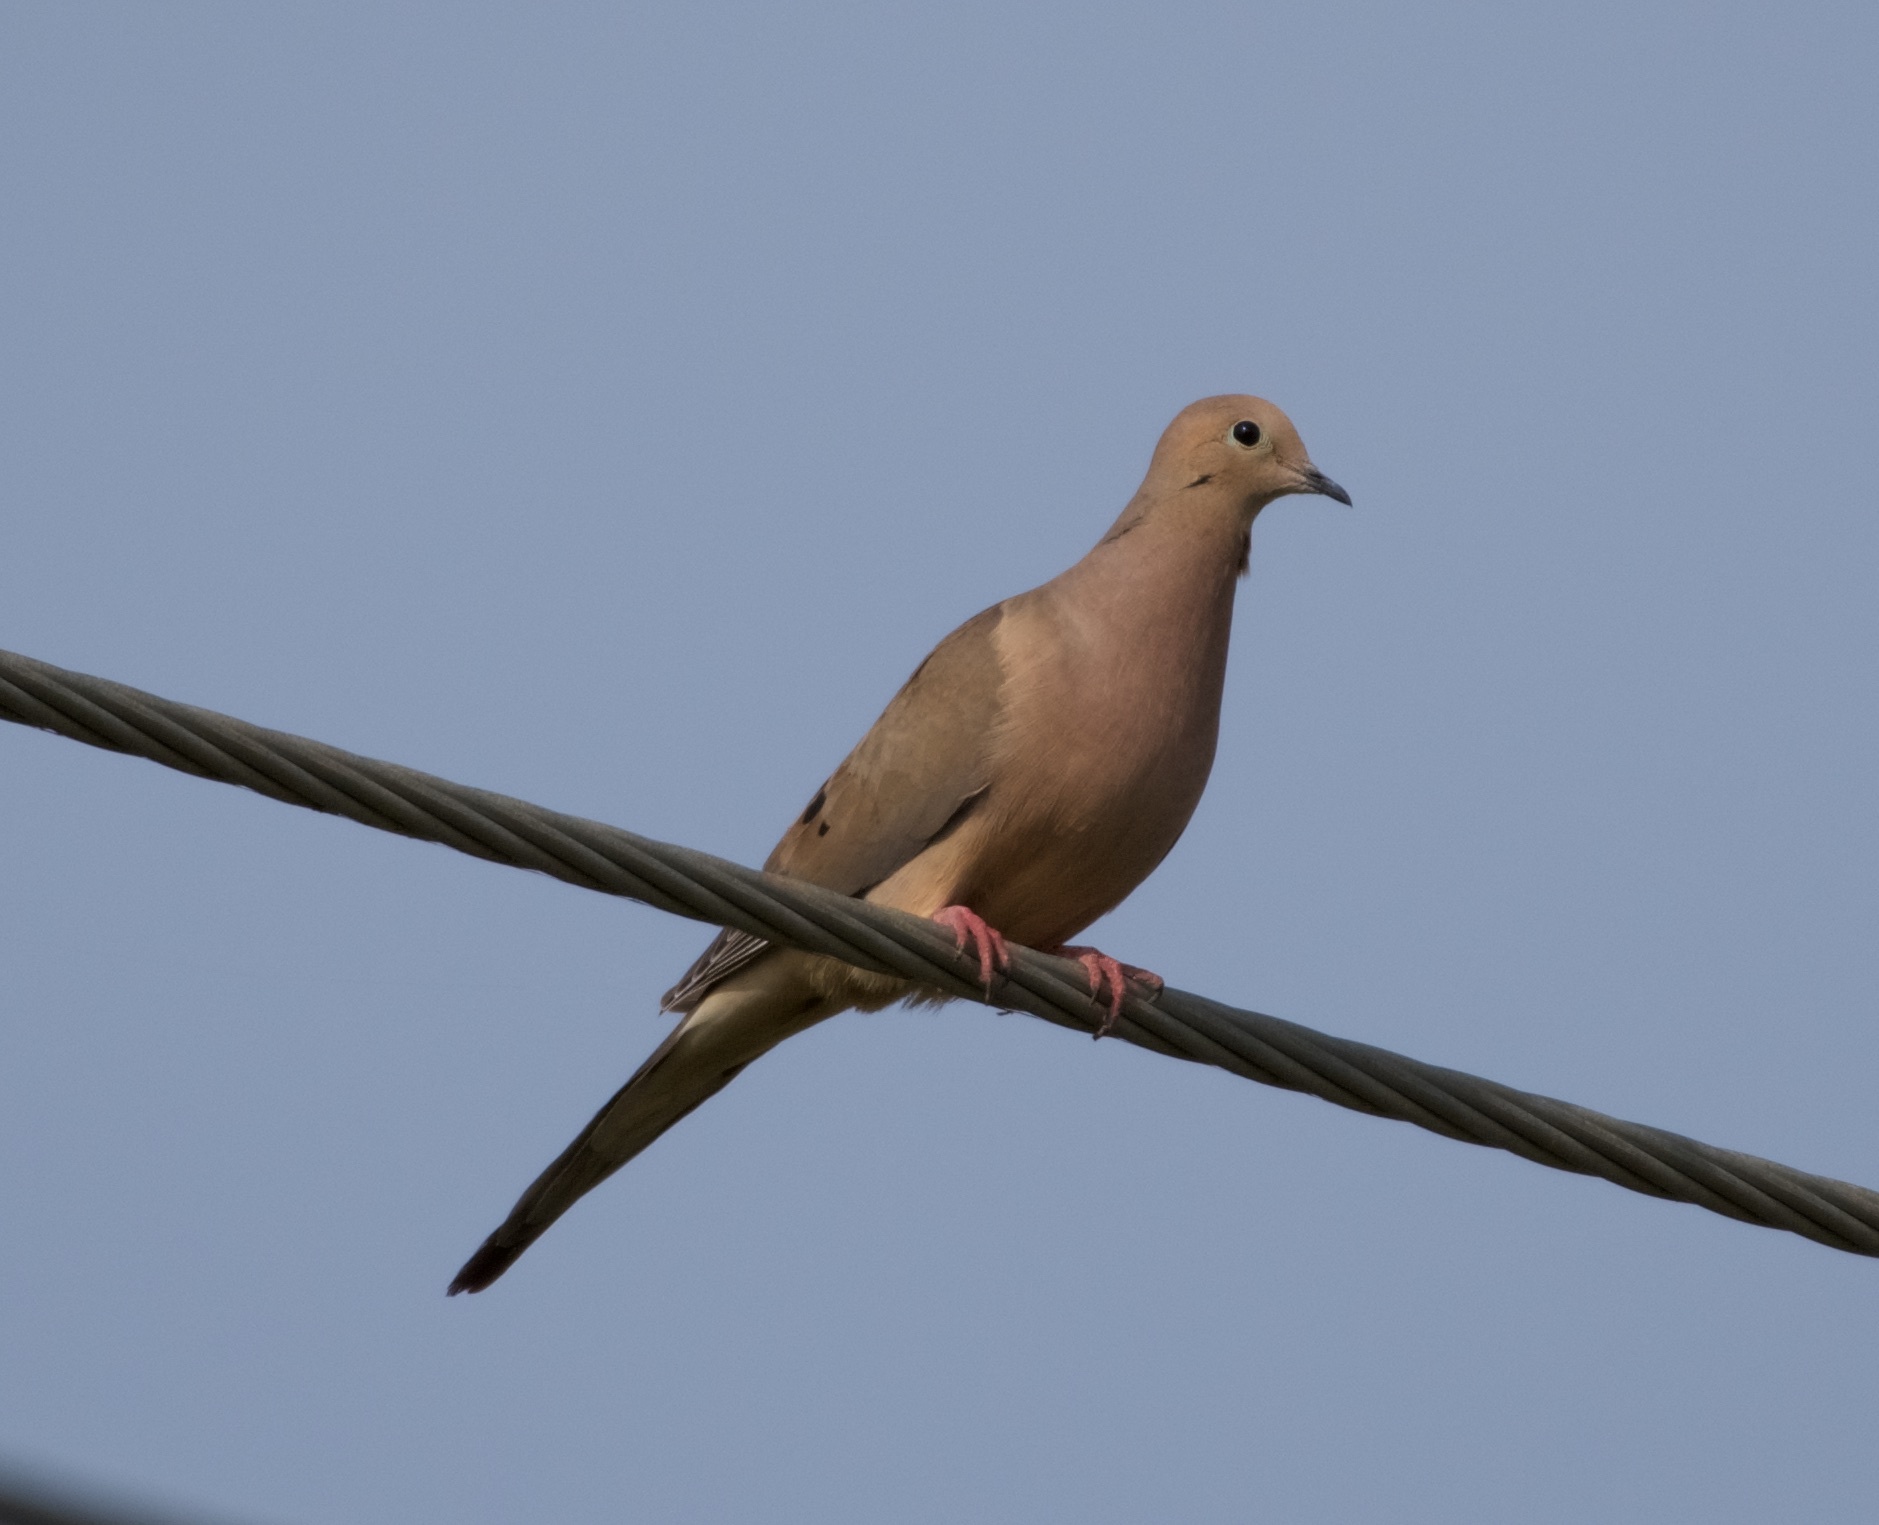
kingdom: Animalia
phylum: Chordata
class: Aves
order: Columbiformes
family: Columbidae
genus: Zenaida
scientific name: Zenaida macroura
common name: Mourning dove
